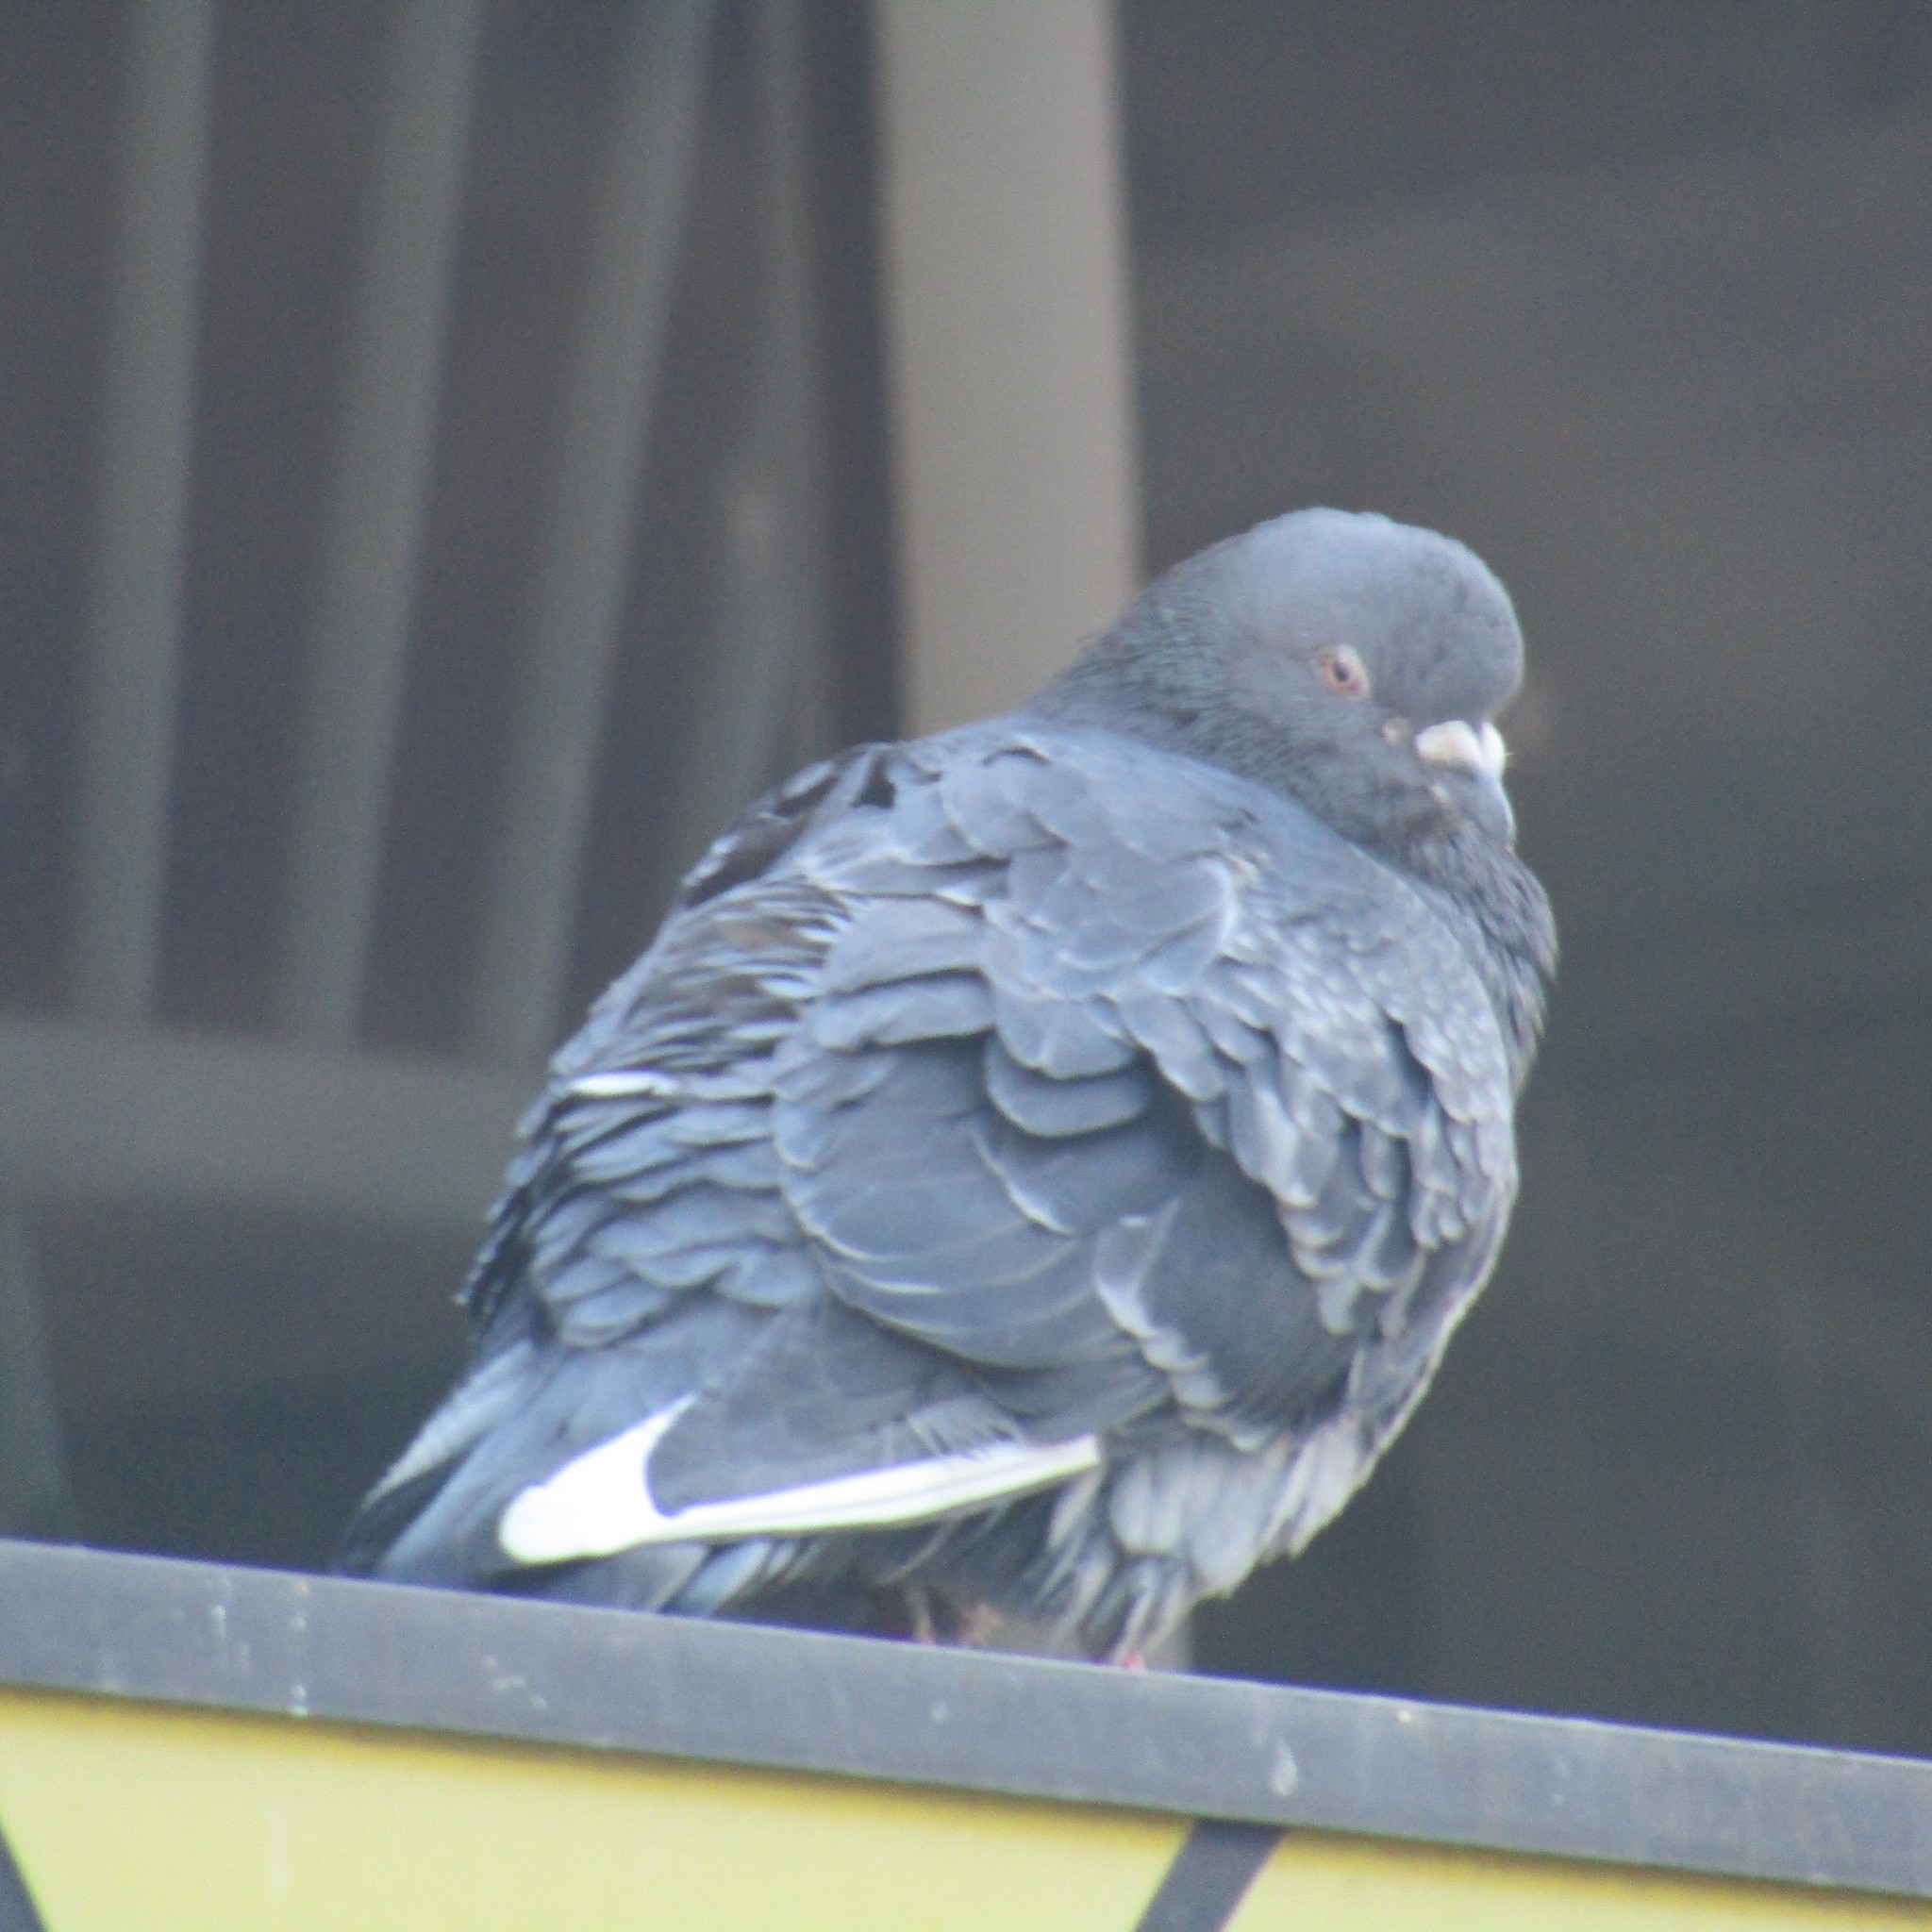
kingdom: Animalia
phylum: Chordata
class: Aves
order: Columbiformes
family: Columbidae
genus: Columba
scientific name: Columba livia
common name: Rock pigeon
